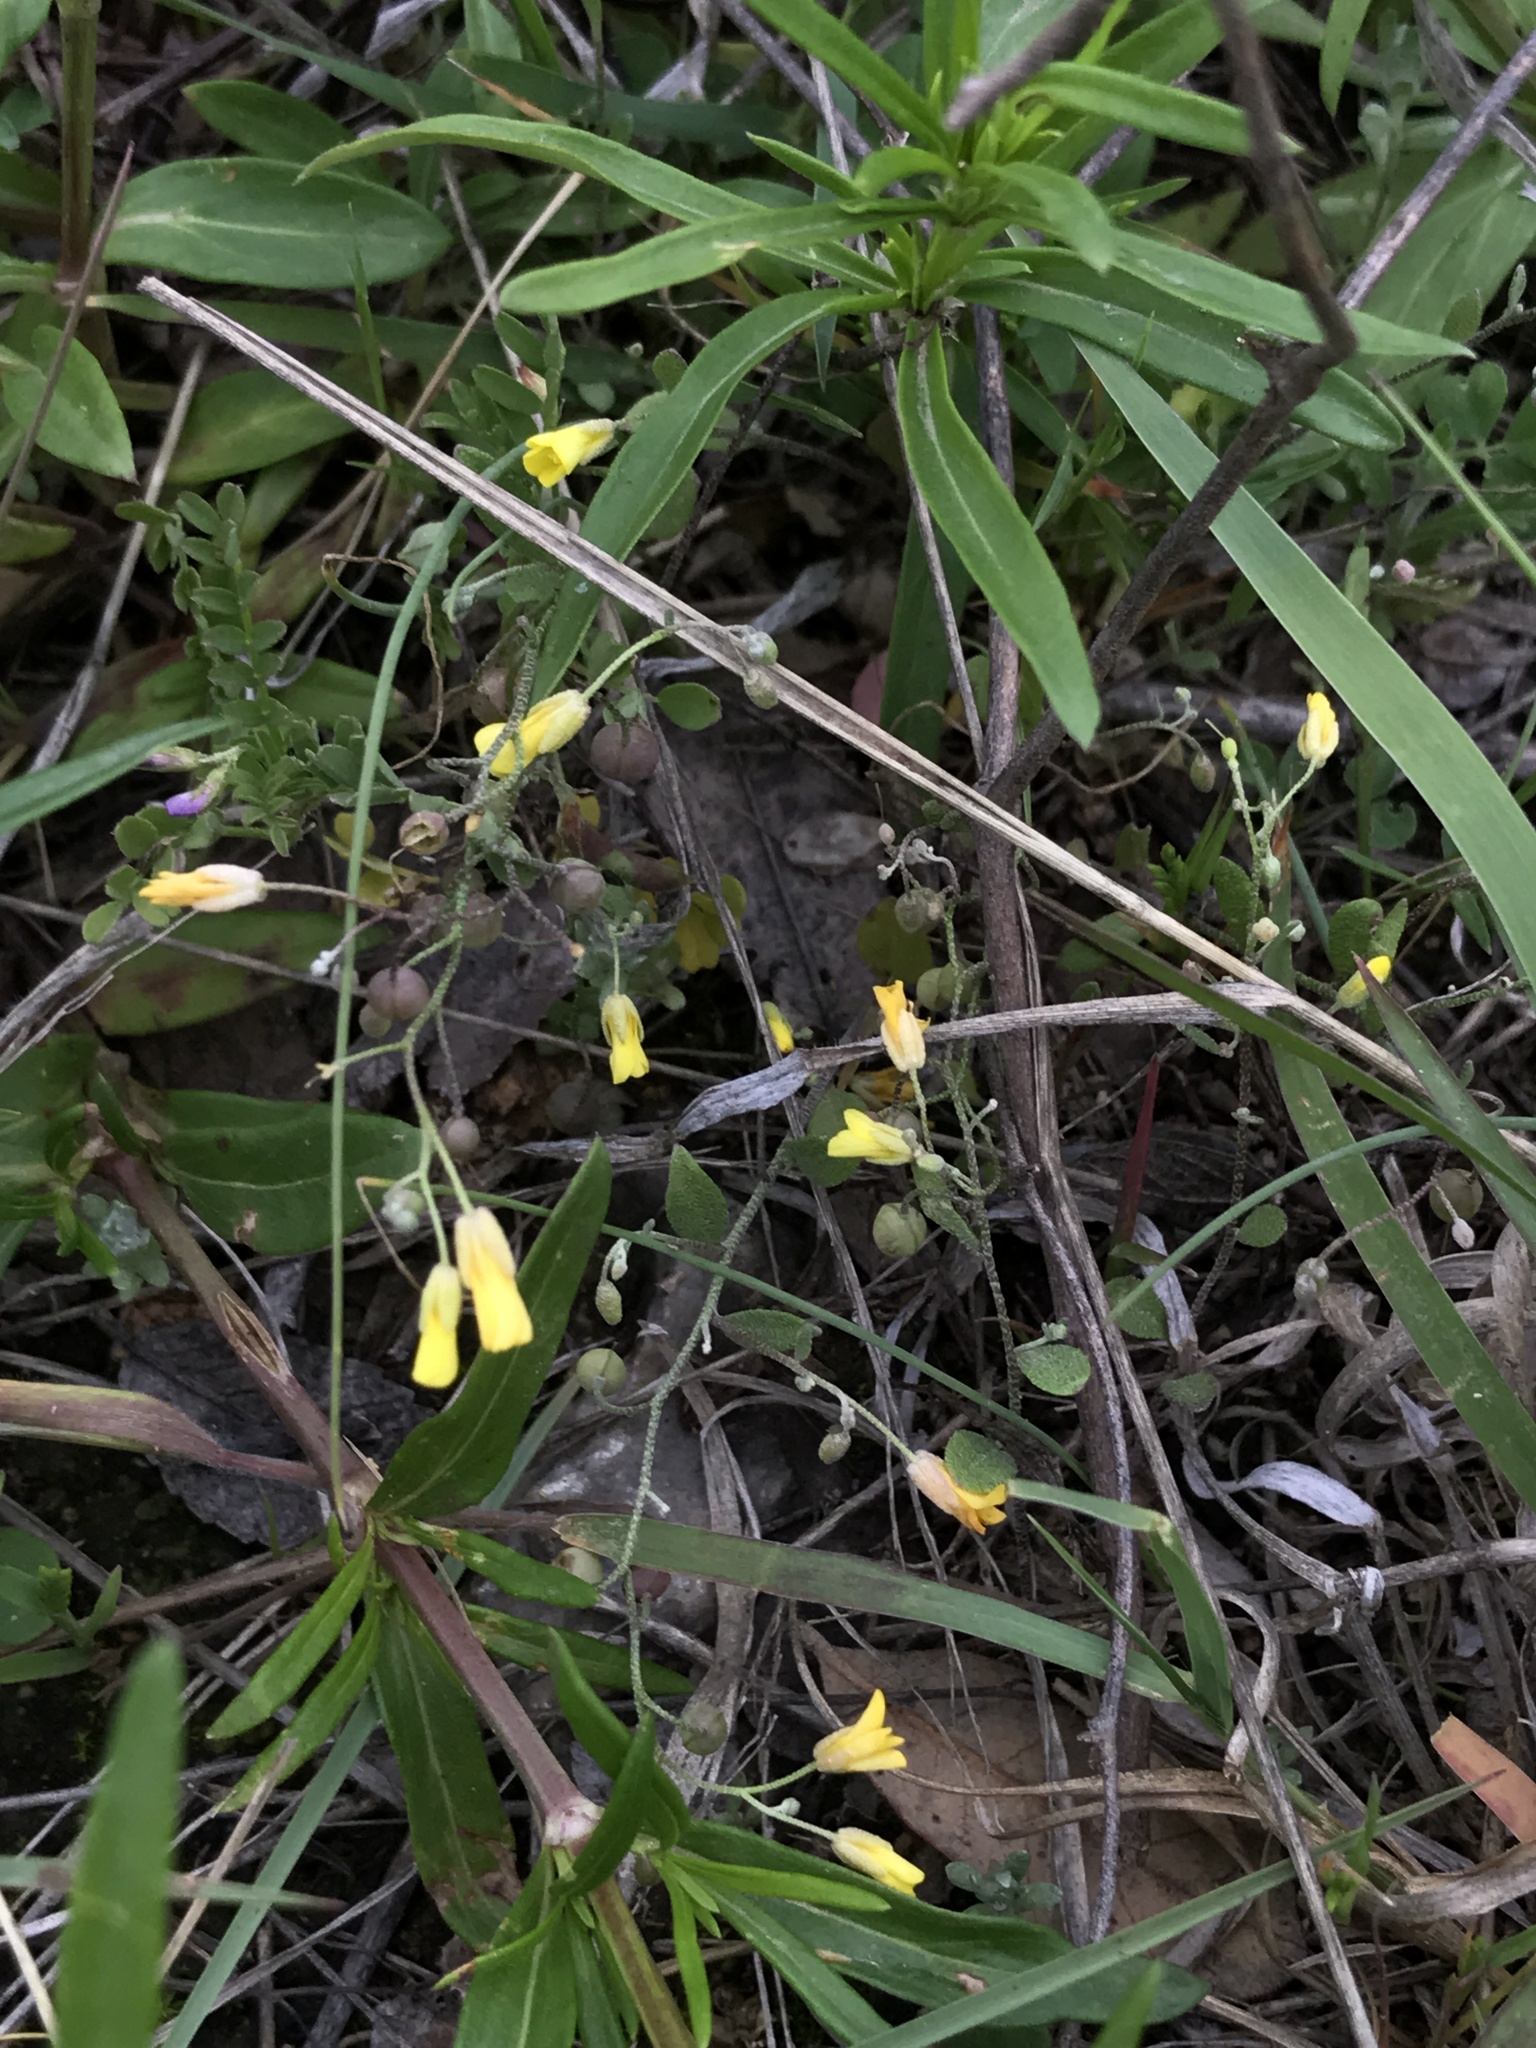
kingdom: Plantae
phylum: Tracheophyta
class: Magnoliopsida
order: Brassicales
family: Brassicaceae
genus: Physaria
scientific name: Physaria recurvata
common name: Gaslight bladderpod
